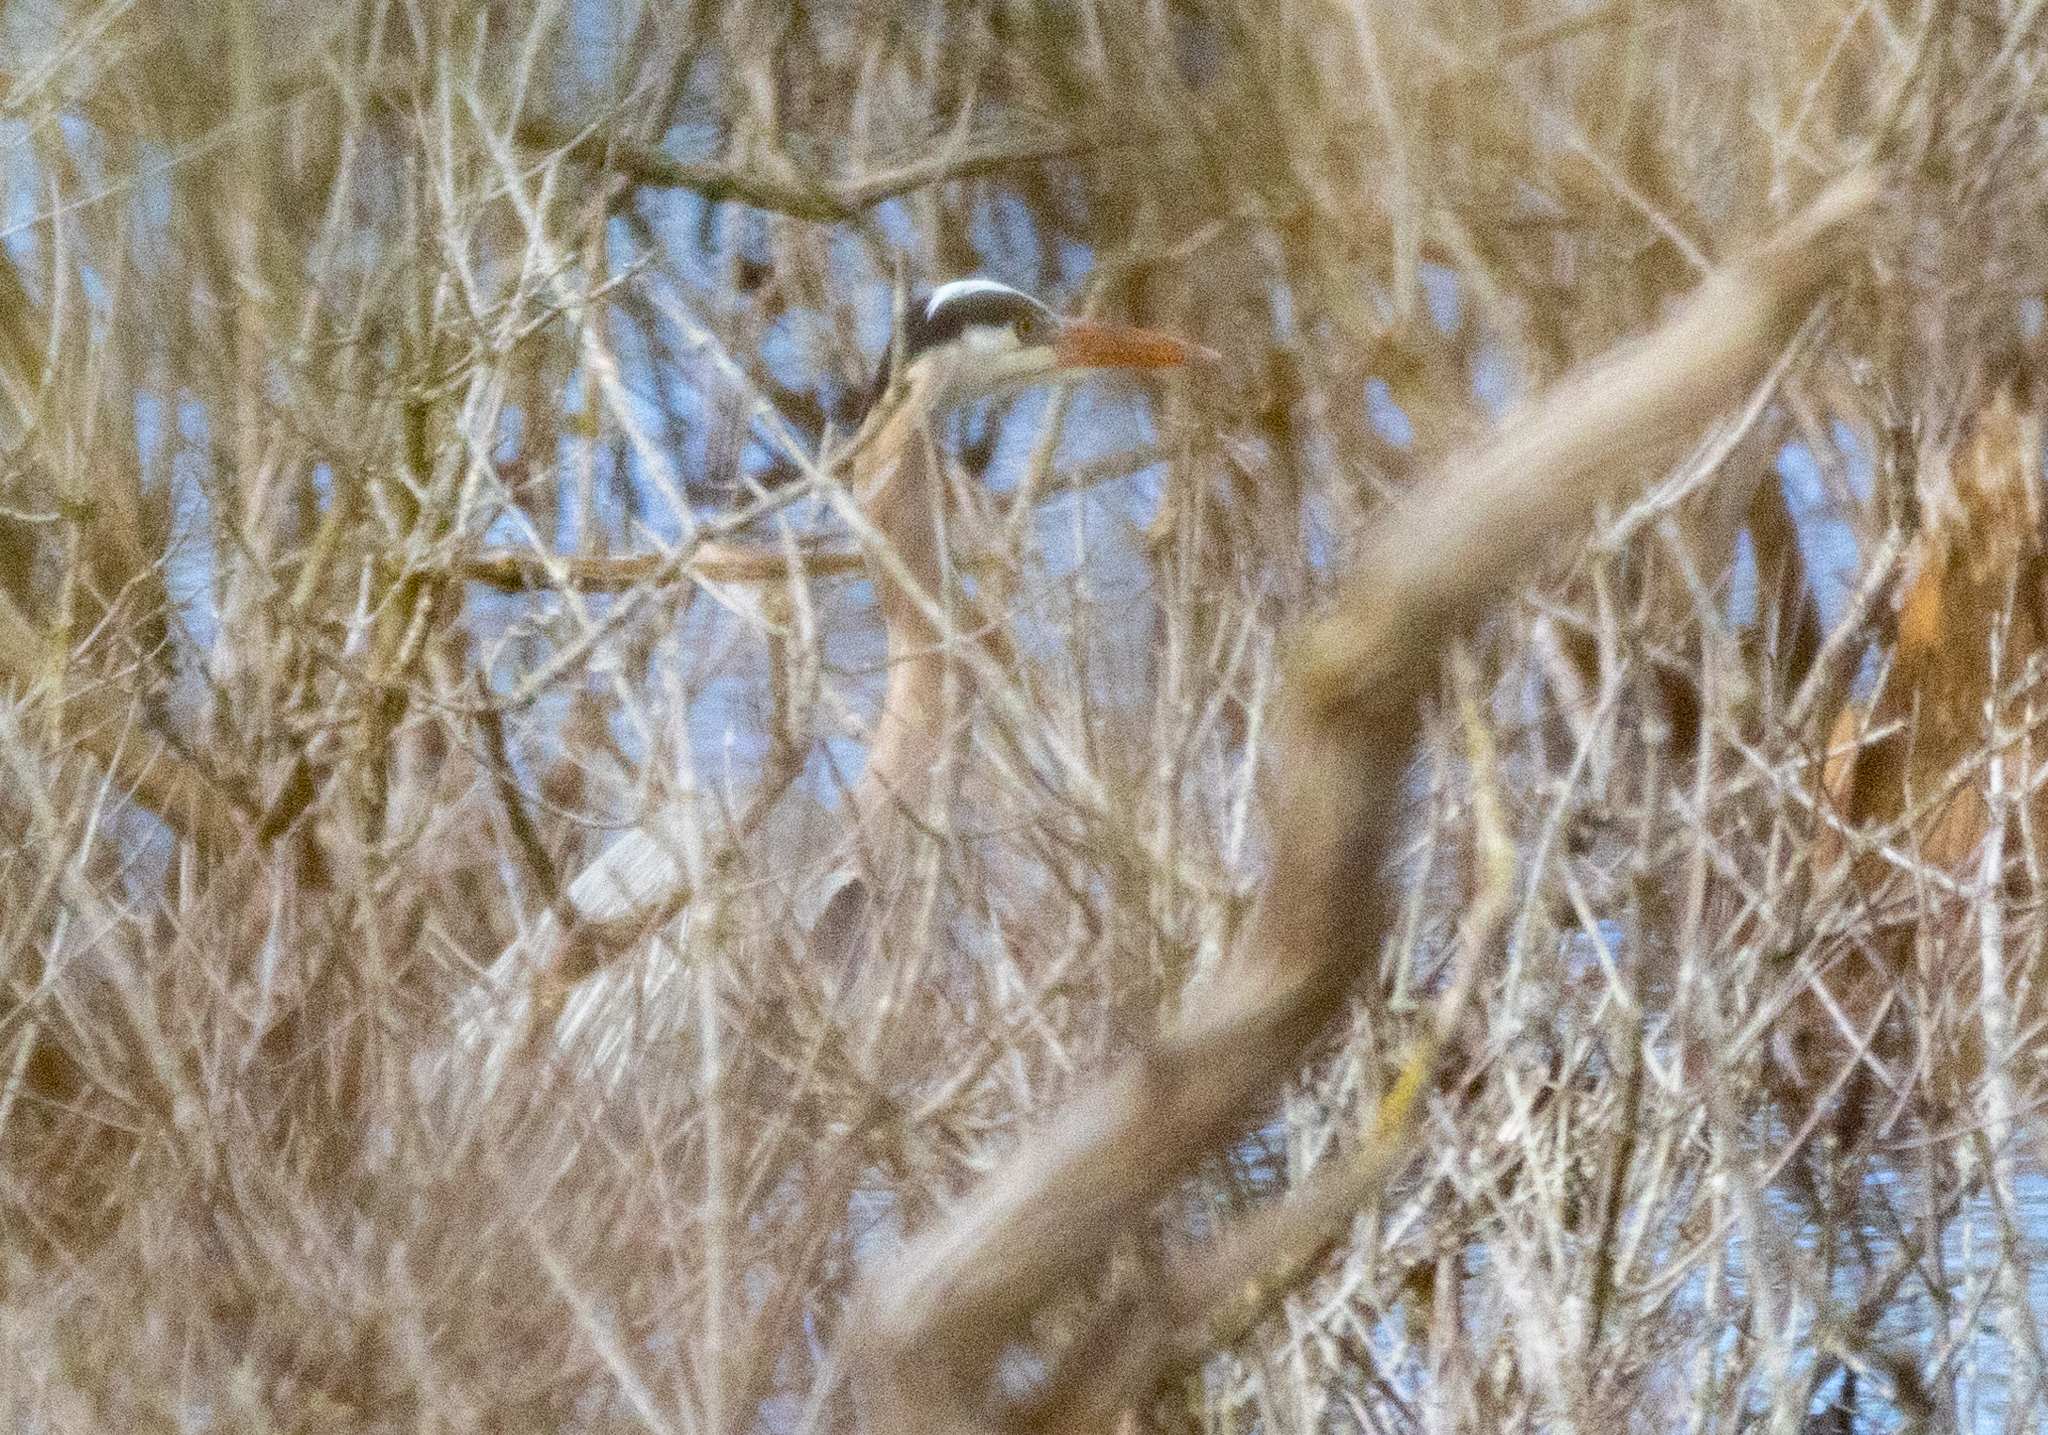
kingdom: Animalia
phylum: Chordata
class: Aves
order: Pelecaniformes
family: Ardeidae
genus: Ardea
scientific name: Ardea herodias
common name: Great blue heron
